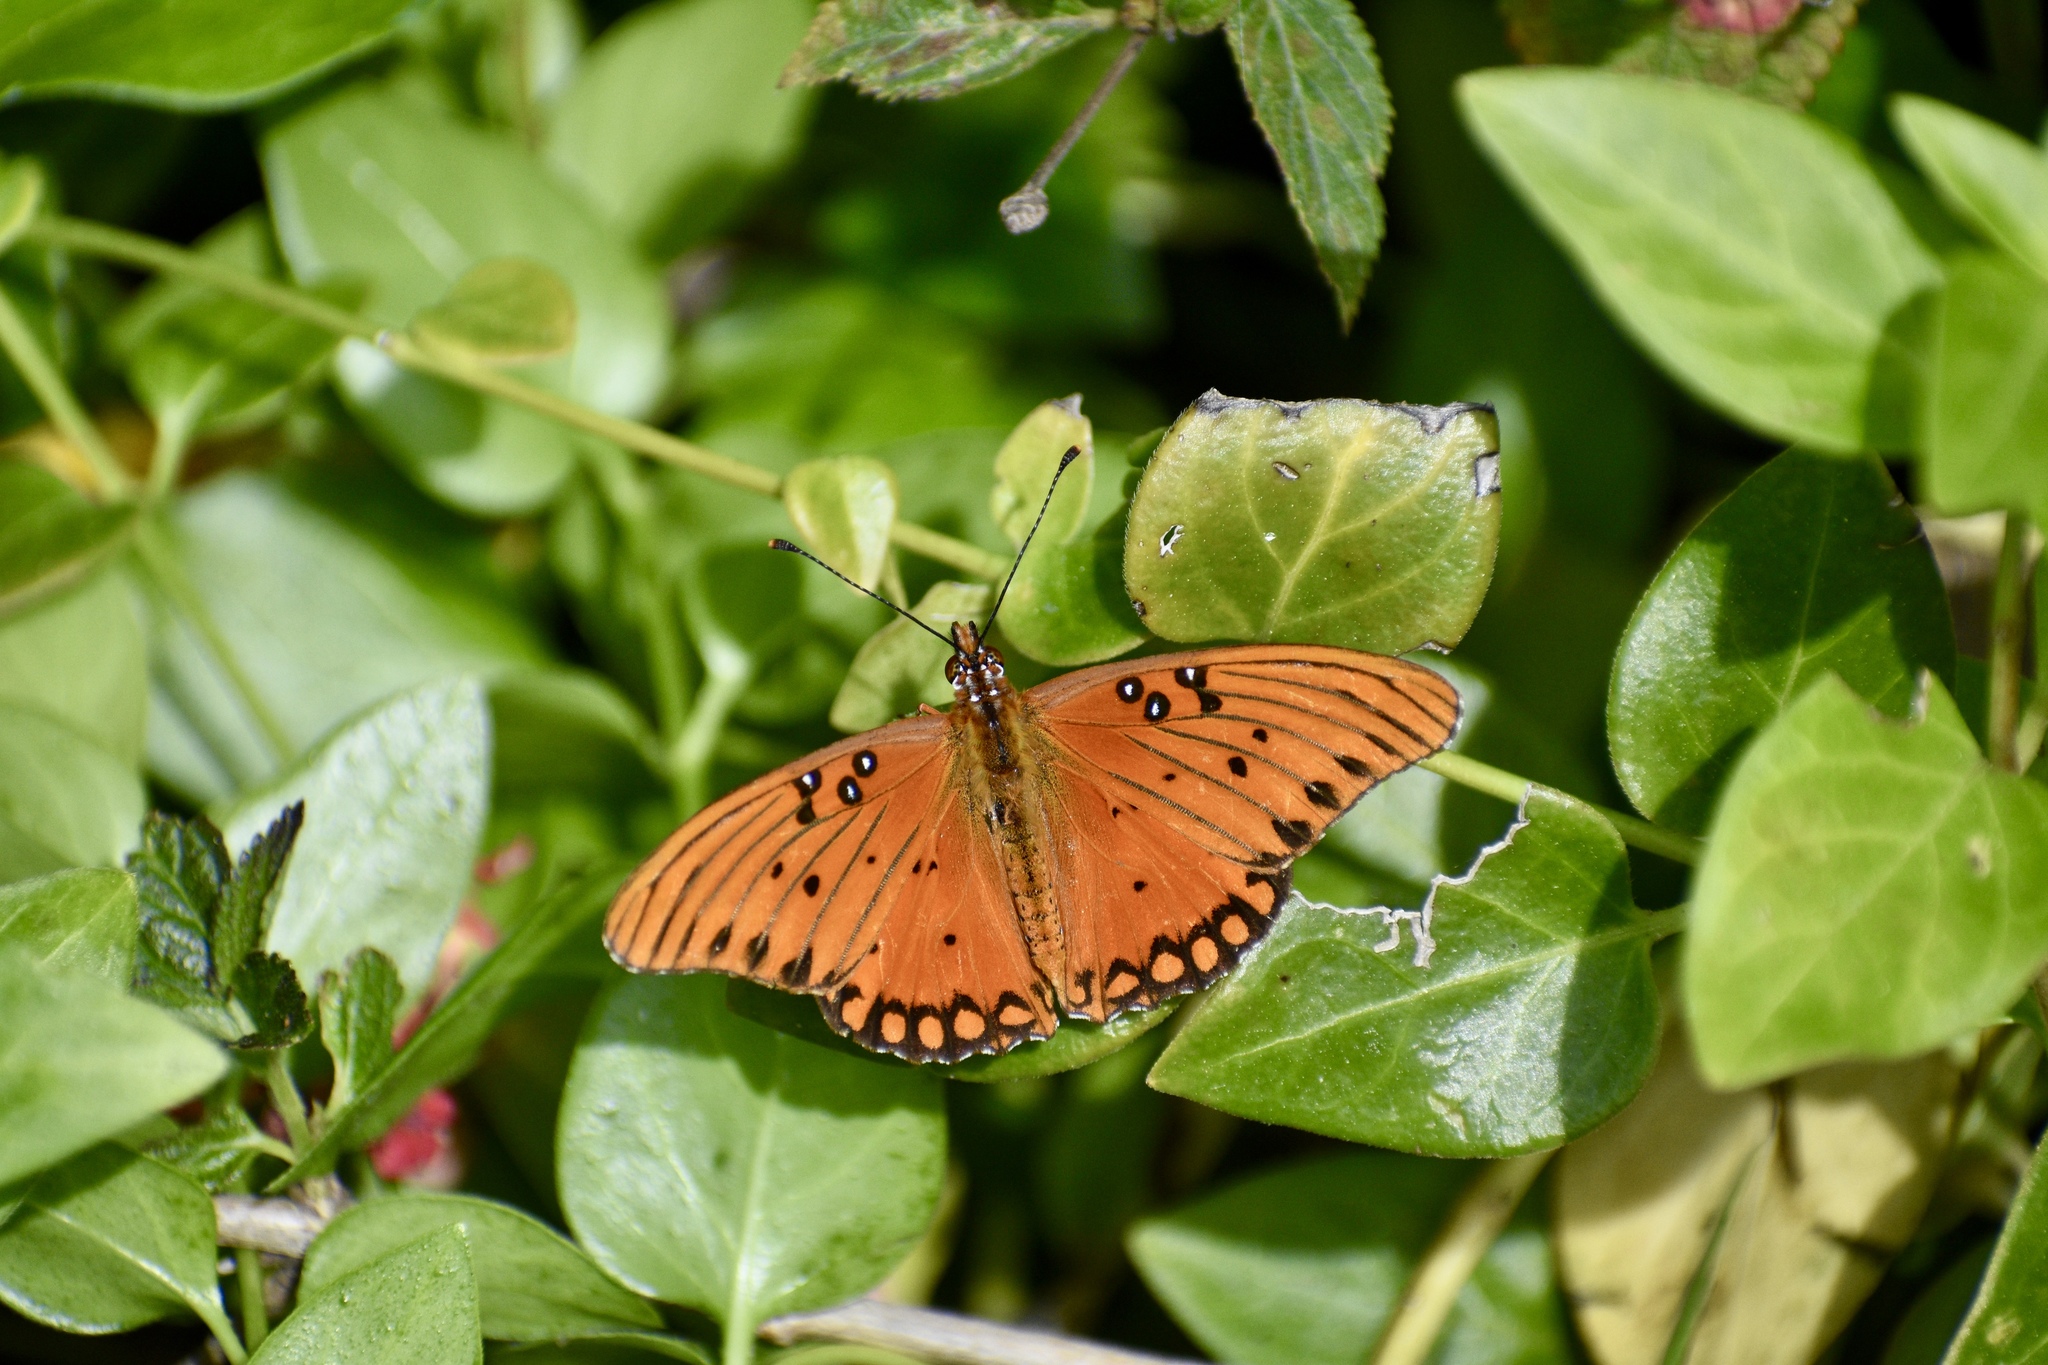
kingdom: Animalia
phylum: Arthropoda
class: Insecta
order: Lepidoptera
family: Nymphalidae
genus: Dione
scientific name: Dione vanillae
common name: Gulf fritillary
